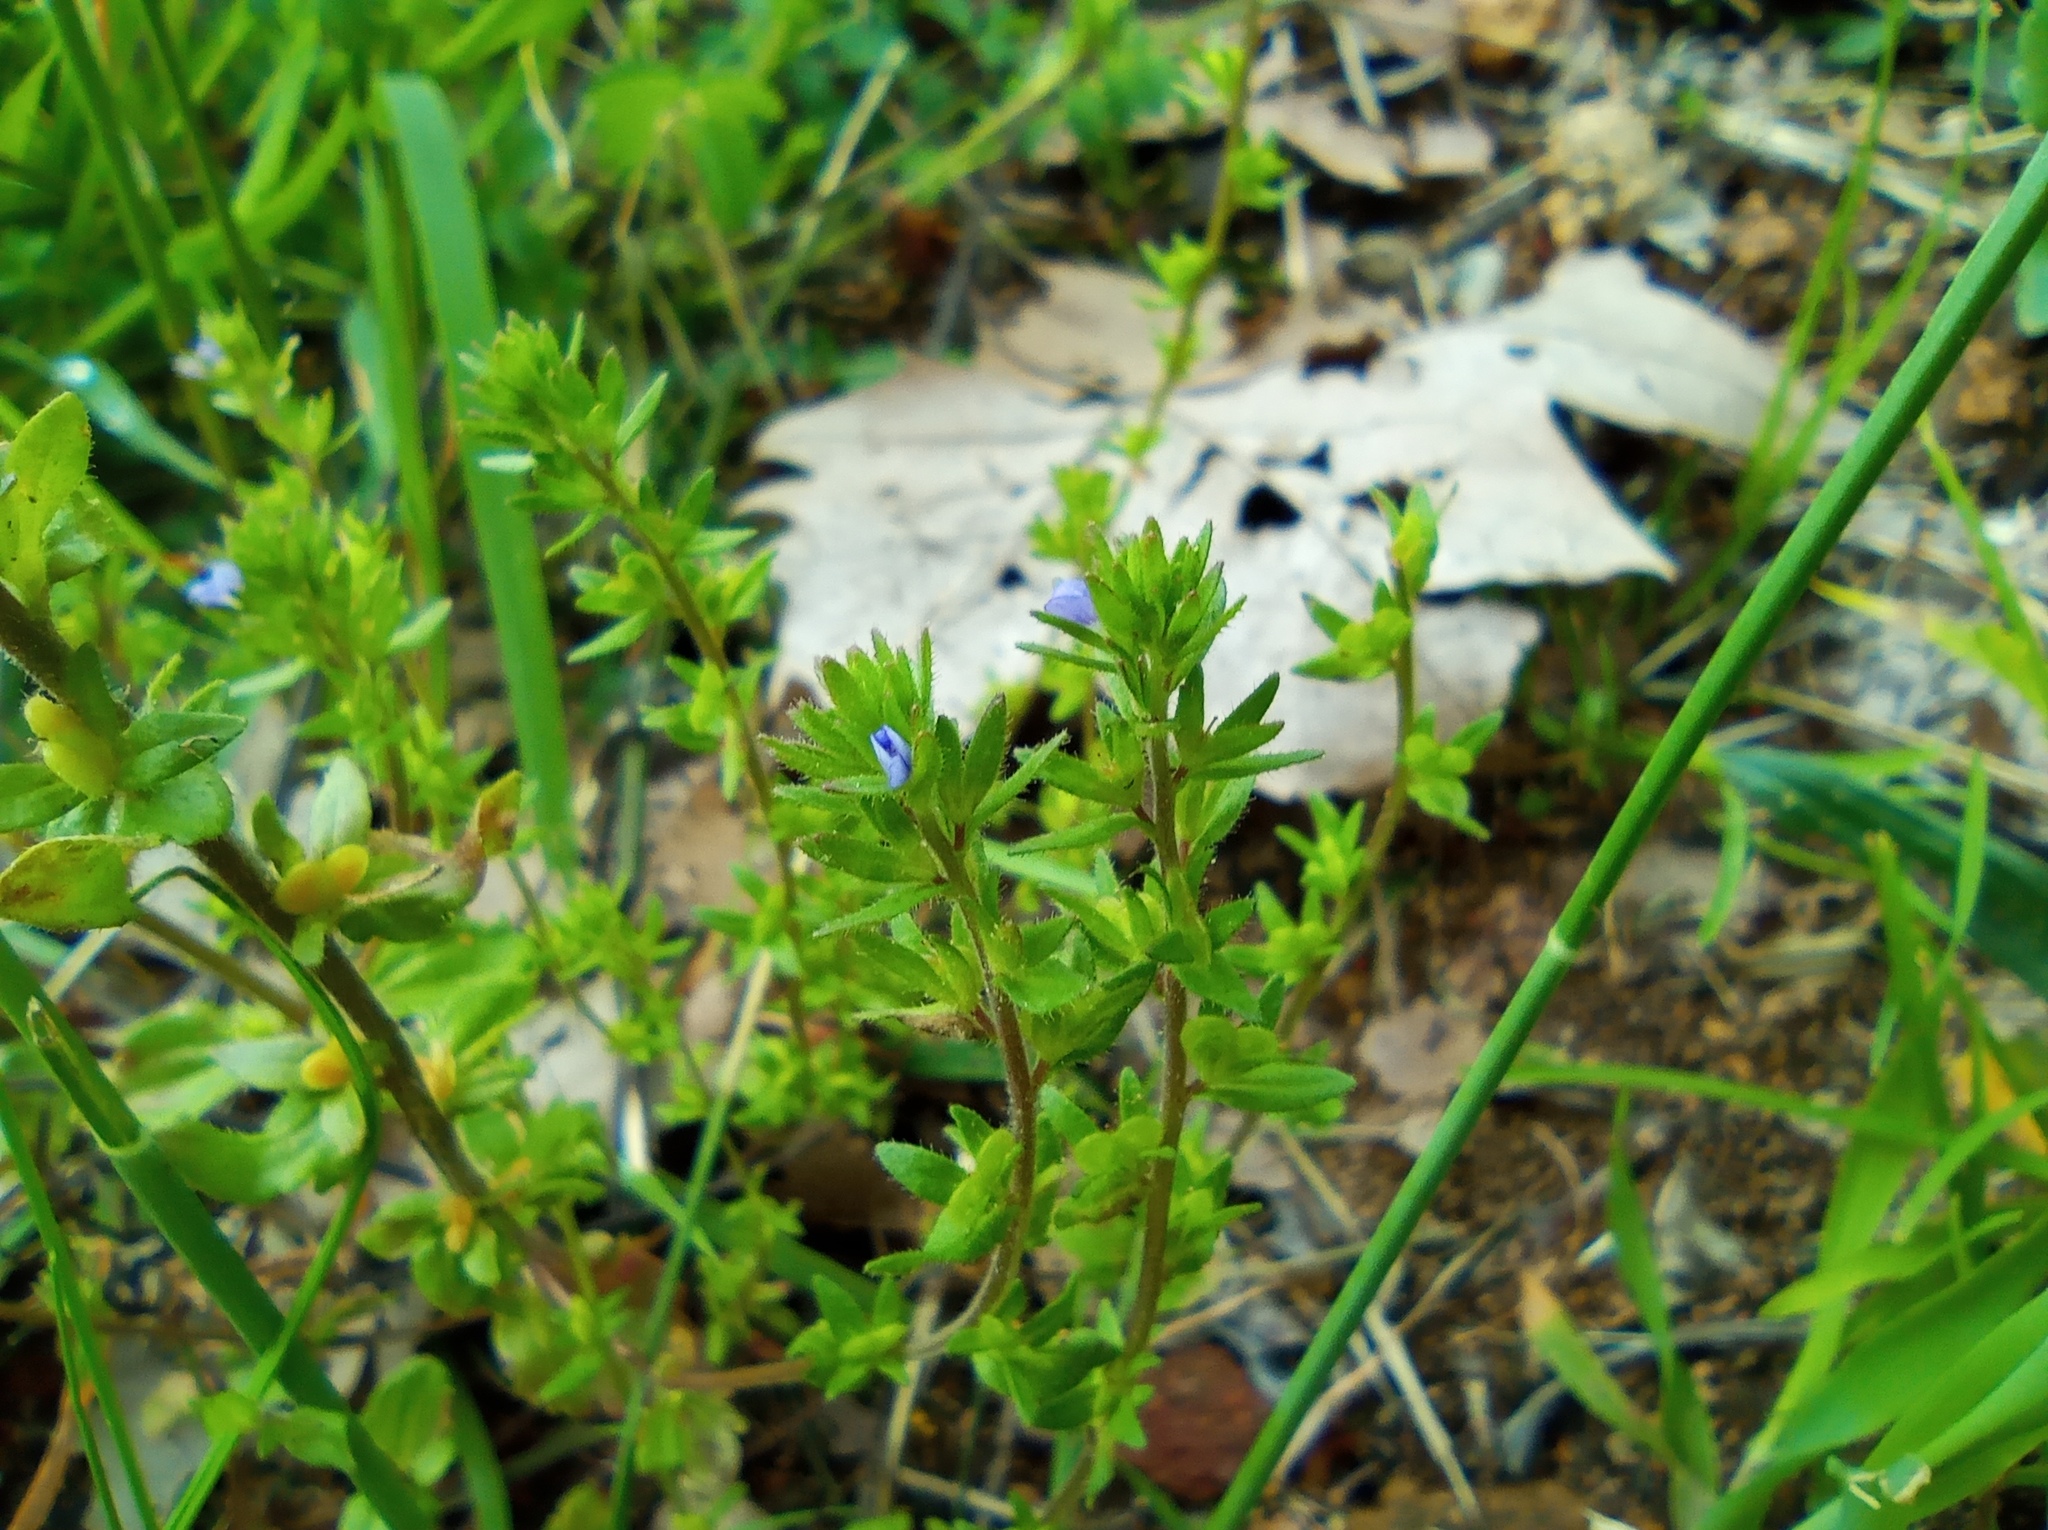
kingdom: Plantae
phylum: Tracheophyta
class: Magnoliopsida
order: Lamiales
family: Plantaginaceae
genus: Veronica
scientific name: Veronica arvensis
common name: Corn speedwell
